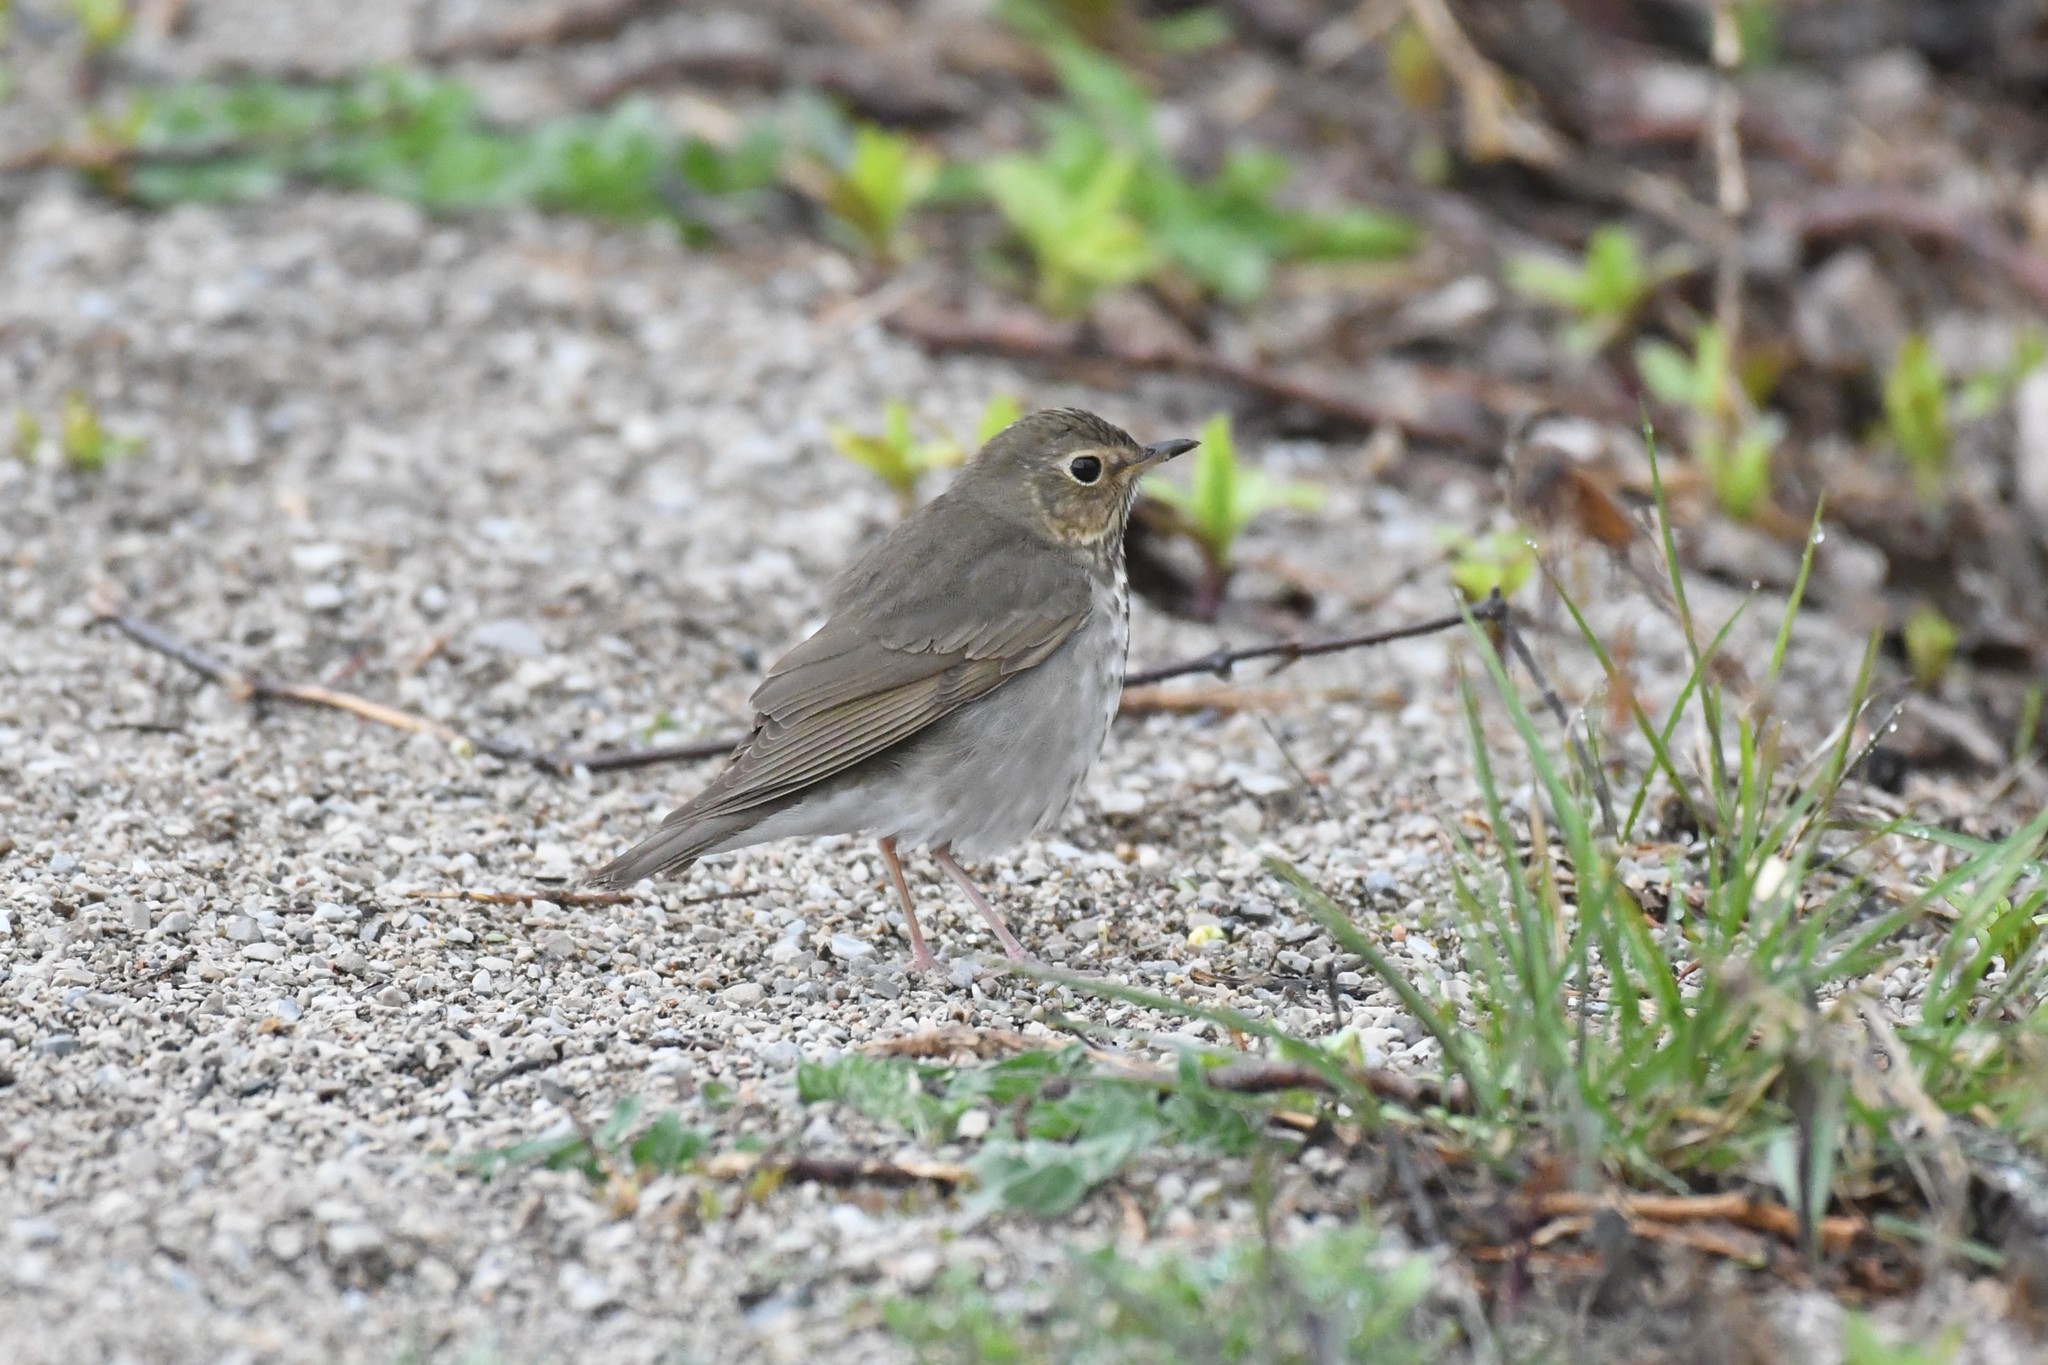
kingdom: Animalia
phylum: Chordata
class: Aves
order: Passeriformes
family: Turdidae
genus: Catharus
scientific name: Catharus ustulatus
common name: Swainson's thrush
